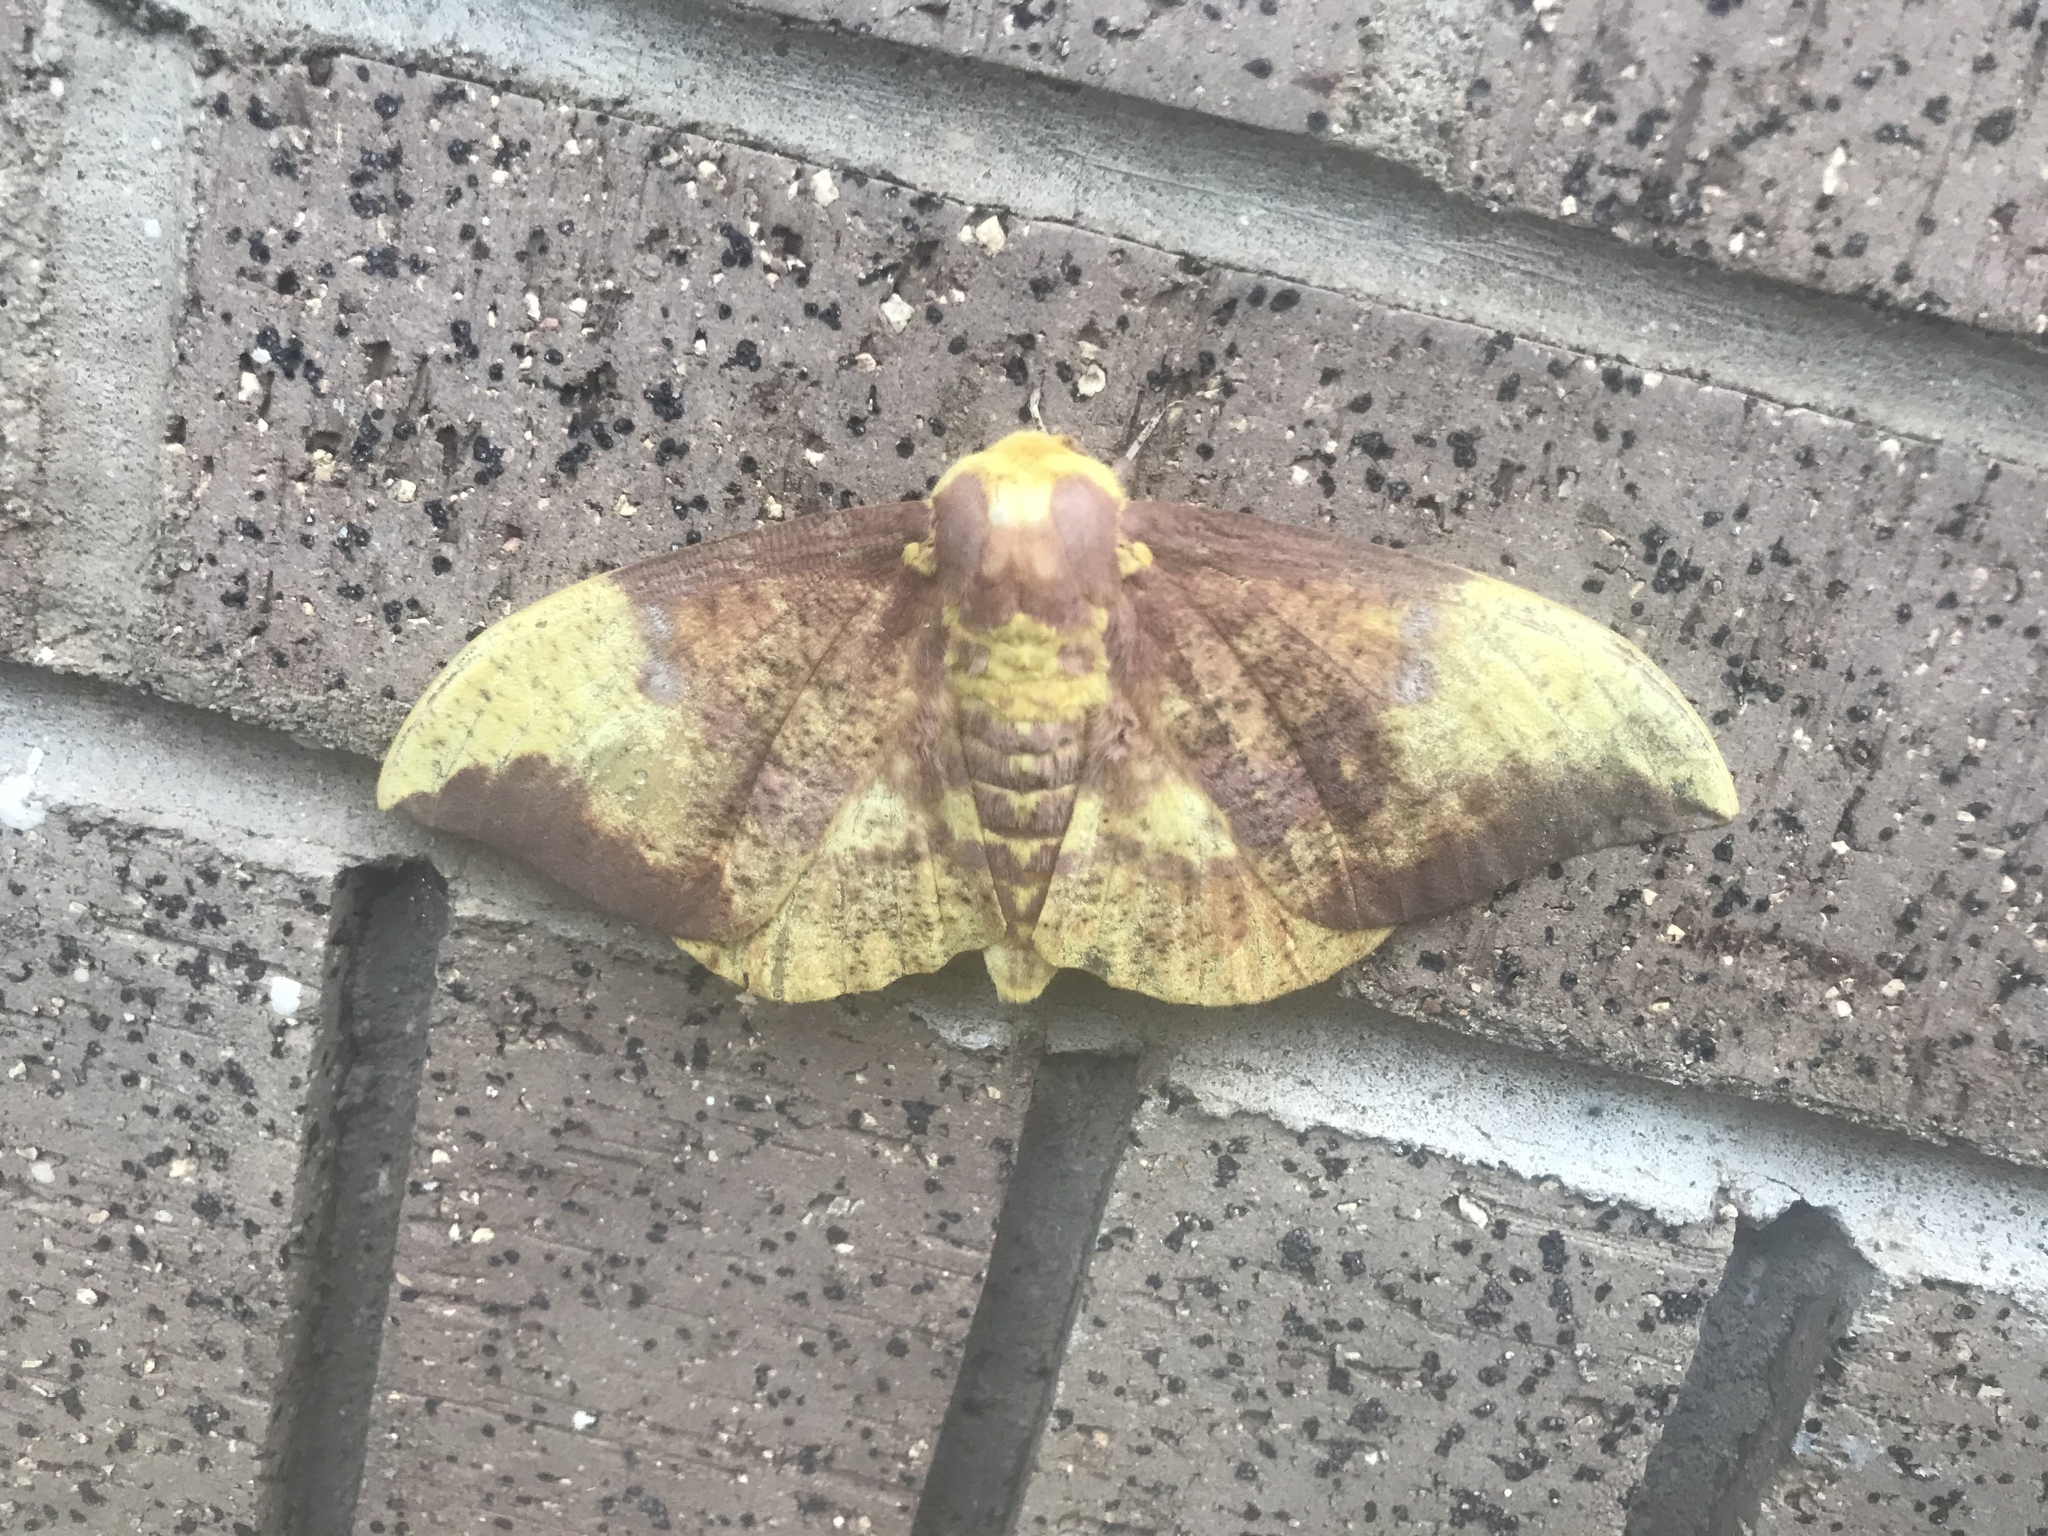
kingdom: Animalia
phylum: Arthropoda
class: Insecta
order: Lepidoptera
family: Saturniidae
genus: Eacles
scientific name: Eacles imperialis
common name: Imperial moth
